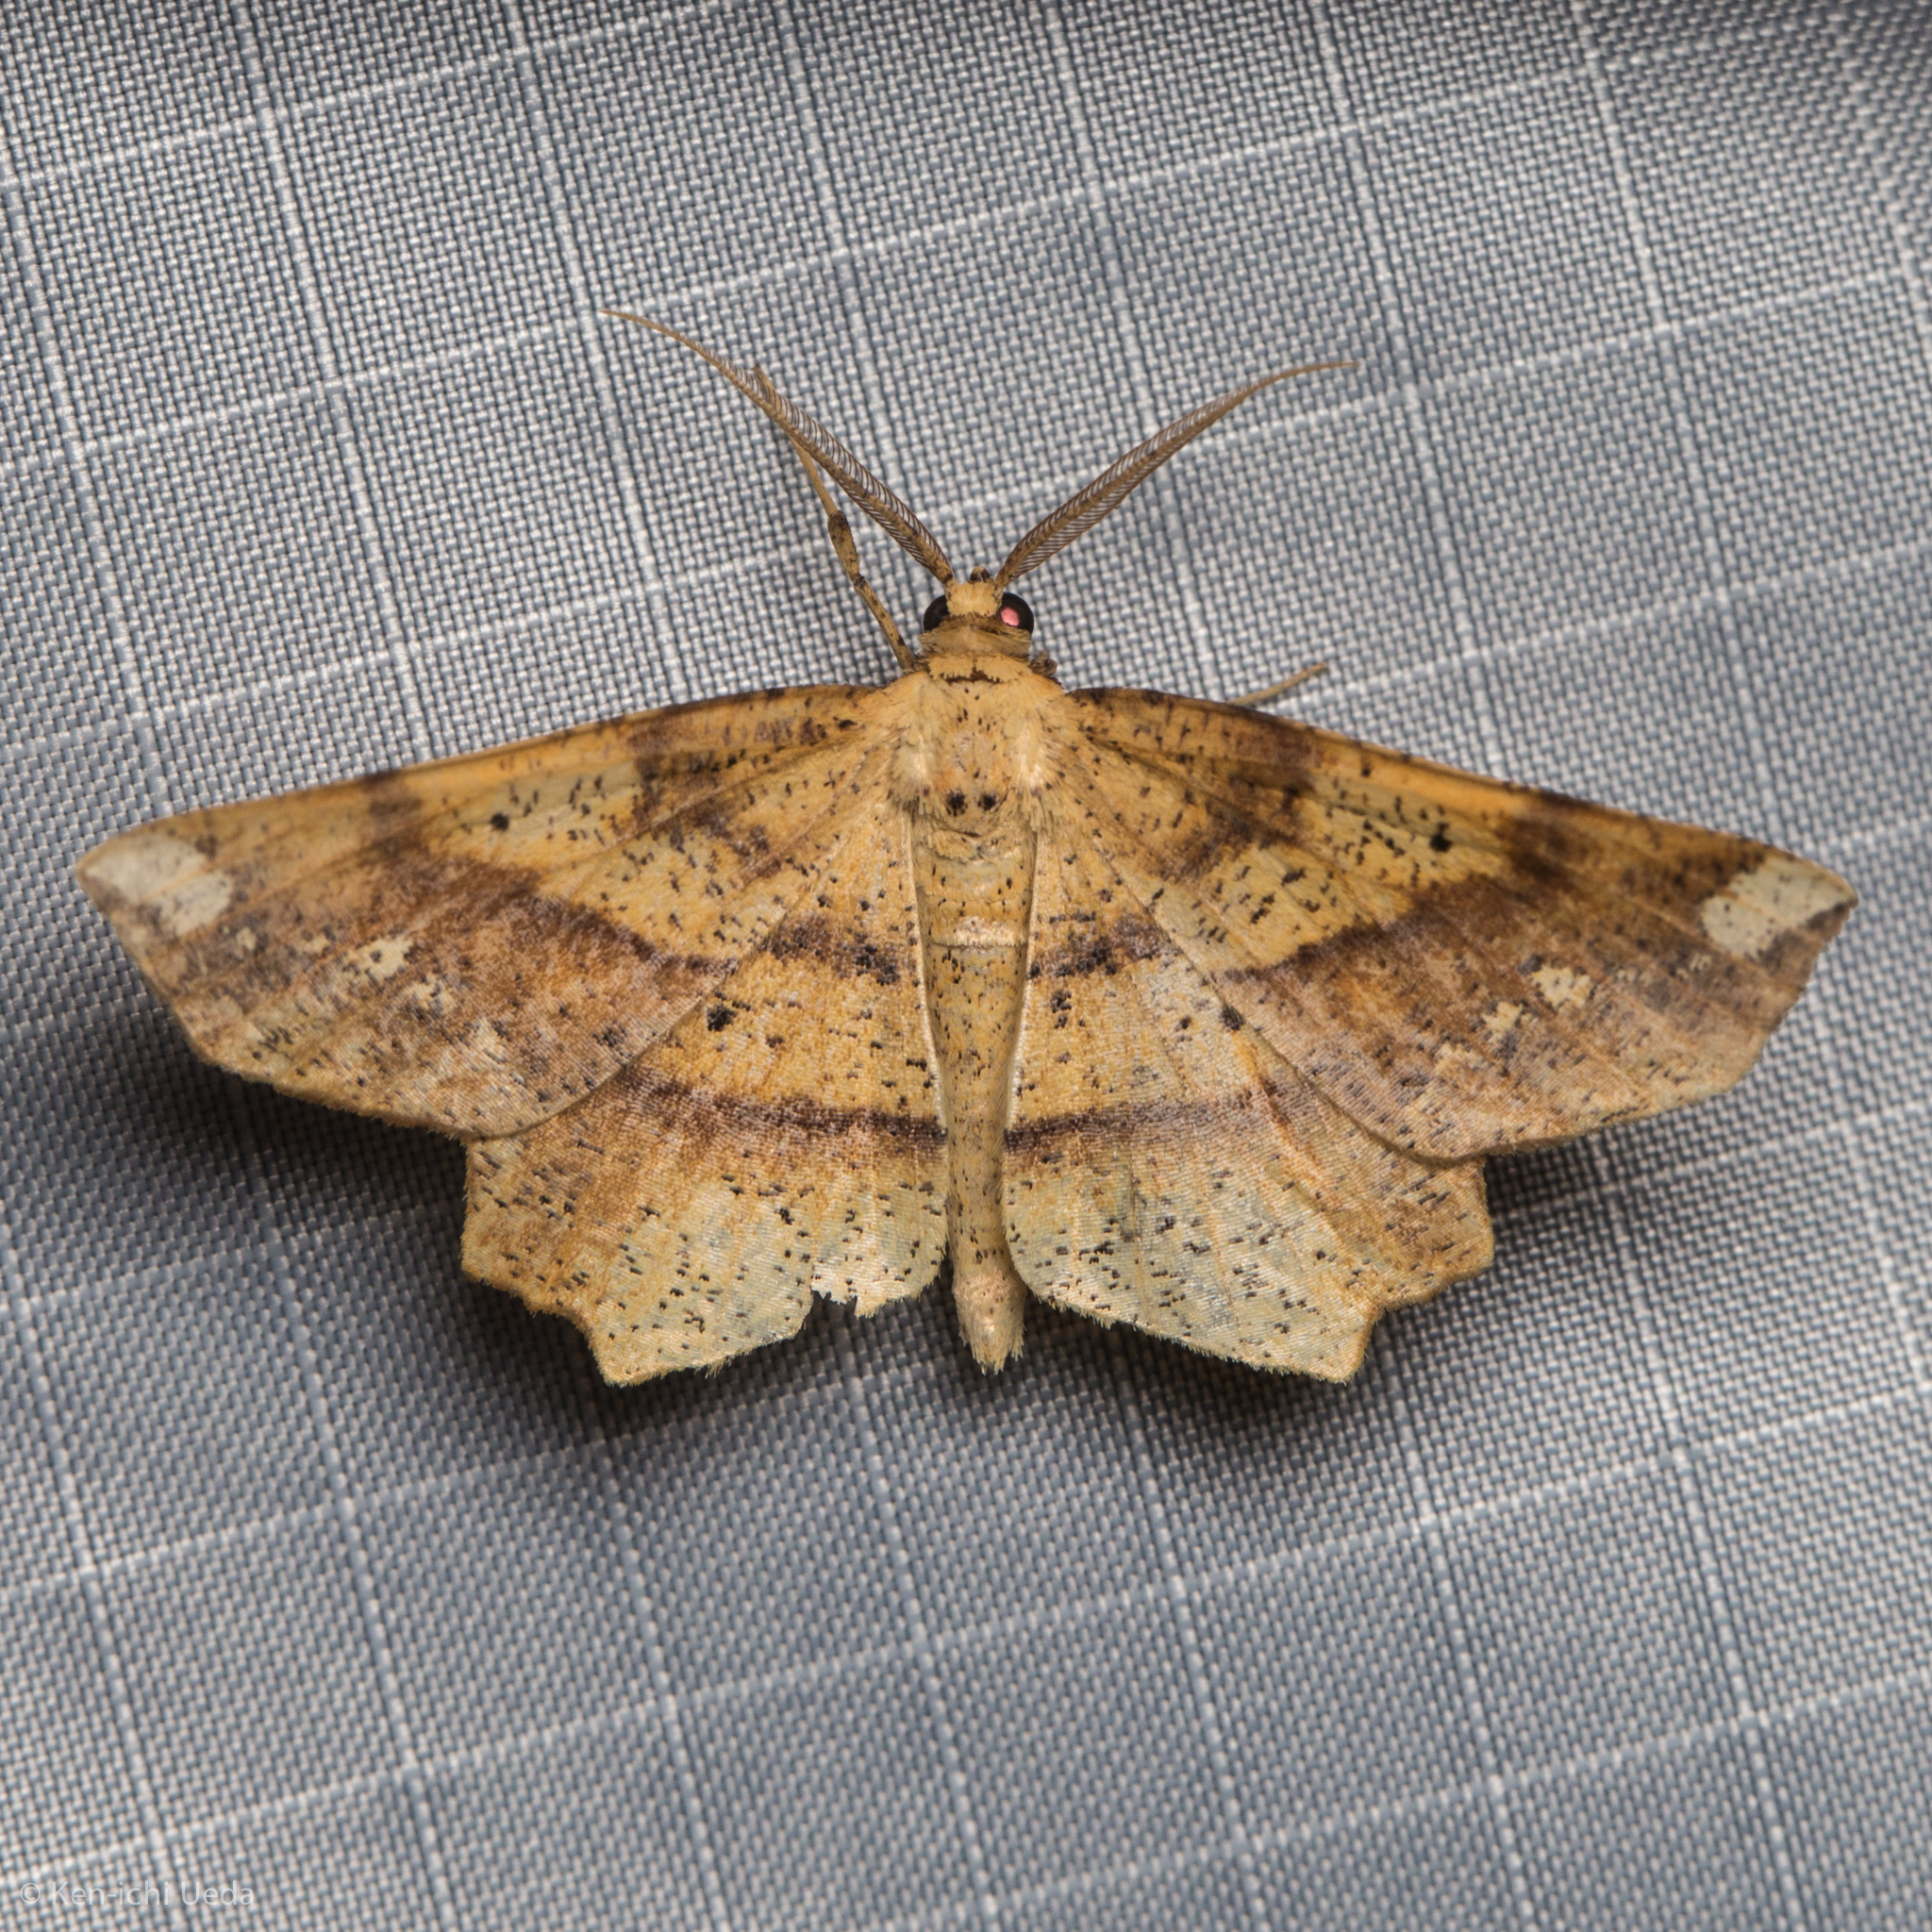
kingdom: Animalia
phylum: Arthropoda
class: Insecta
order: Lepidoptera
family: Geometridae
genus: Euchlaena
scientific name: Euchlaena amoenaria
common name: Deep yellow euchlaena
